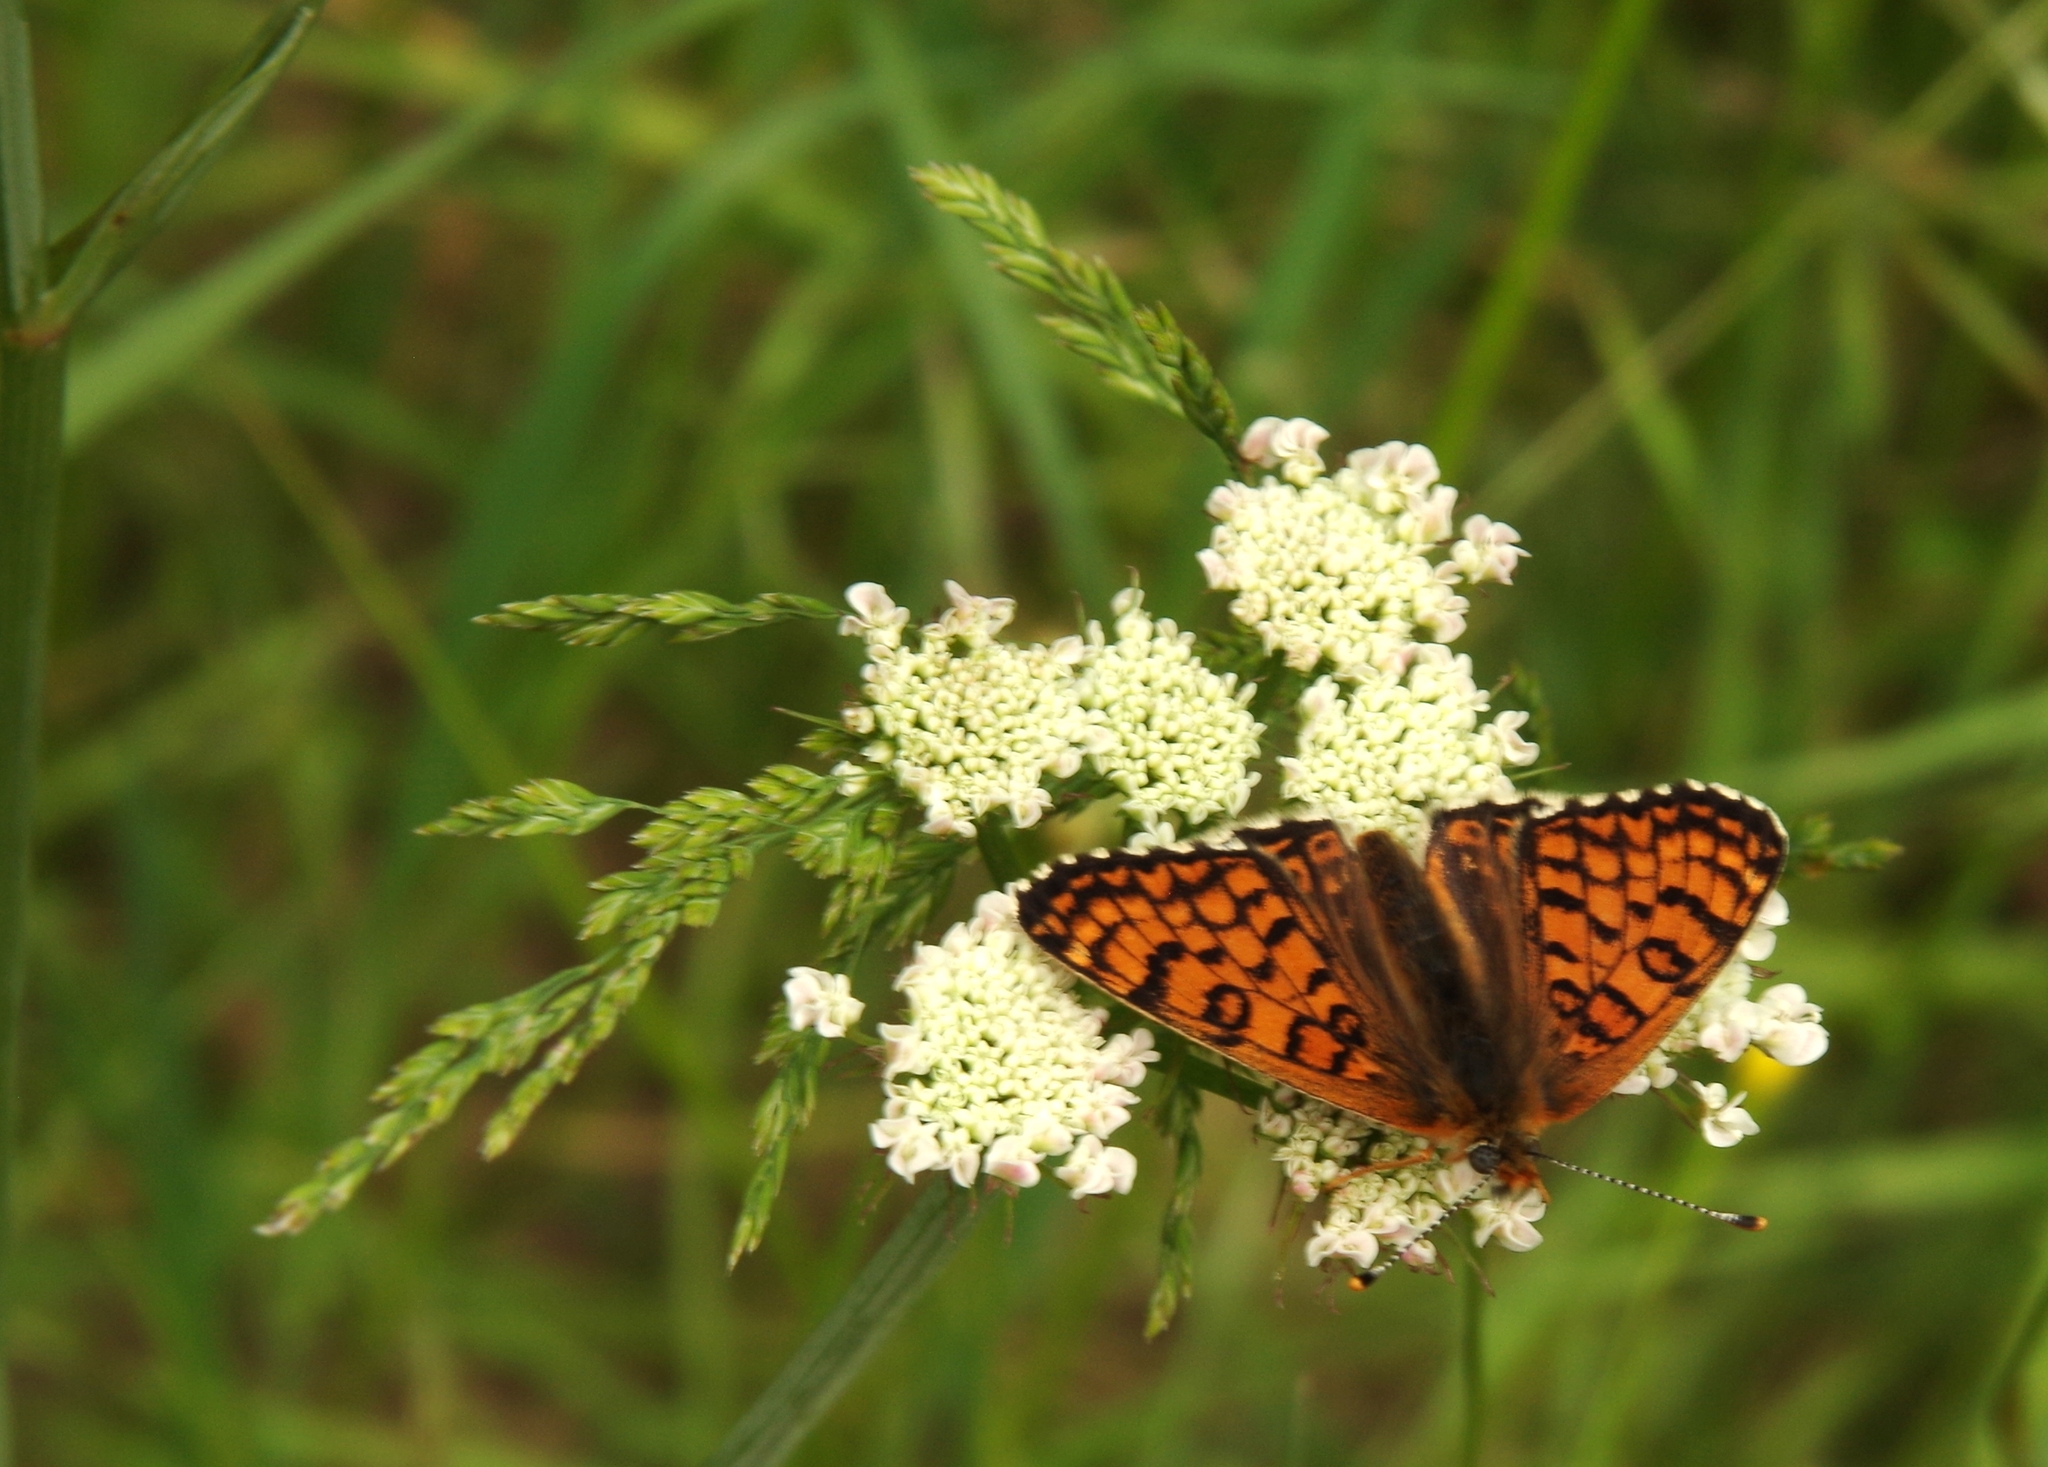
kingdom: Animalia
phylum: Arthropoda
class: Insecta
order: Lepidoptera
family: Nymphalidae
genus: Melitaea
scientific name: Melitaea cinxia
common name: Glanville fritillary
